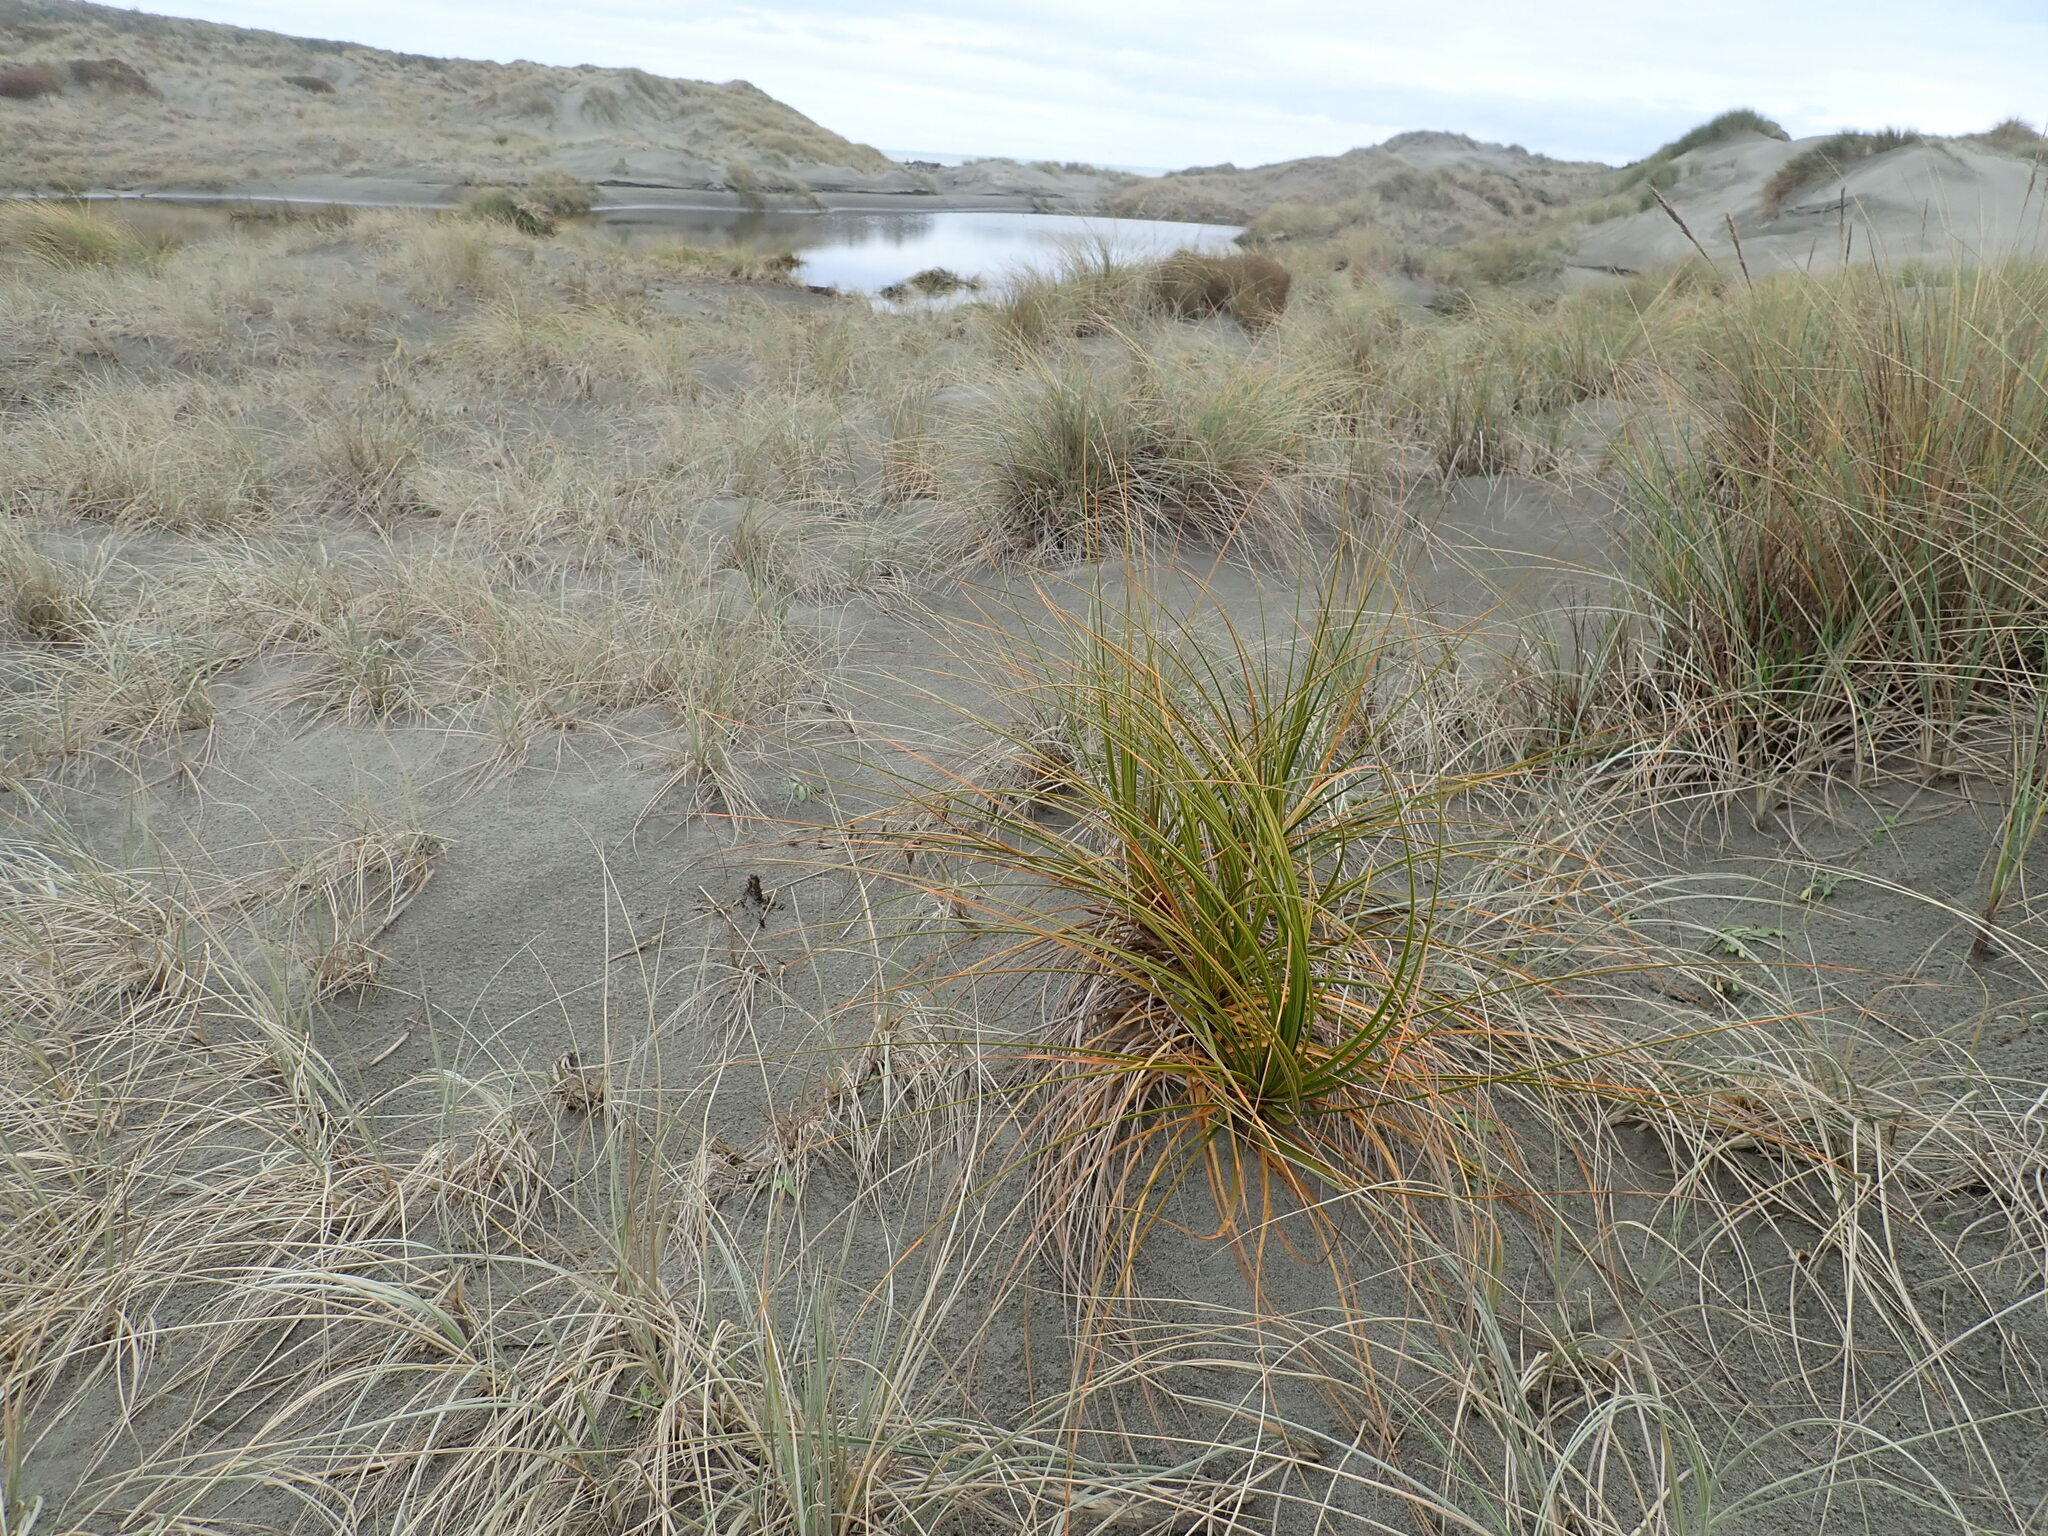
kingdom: Plantae
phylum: Tracheophyta
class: Liliopsida
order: Poales
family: Cyperaceae
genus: Ficinia
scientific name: Ficinia spiralis
